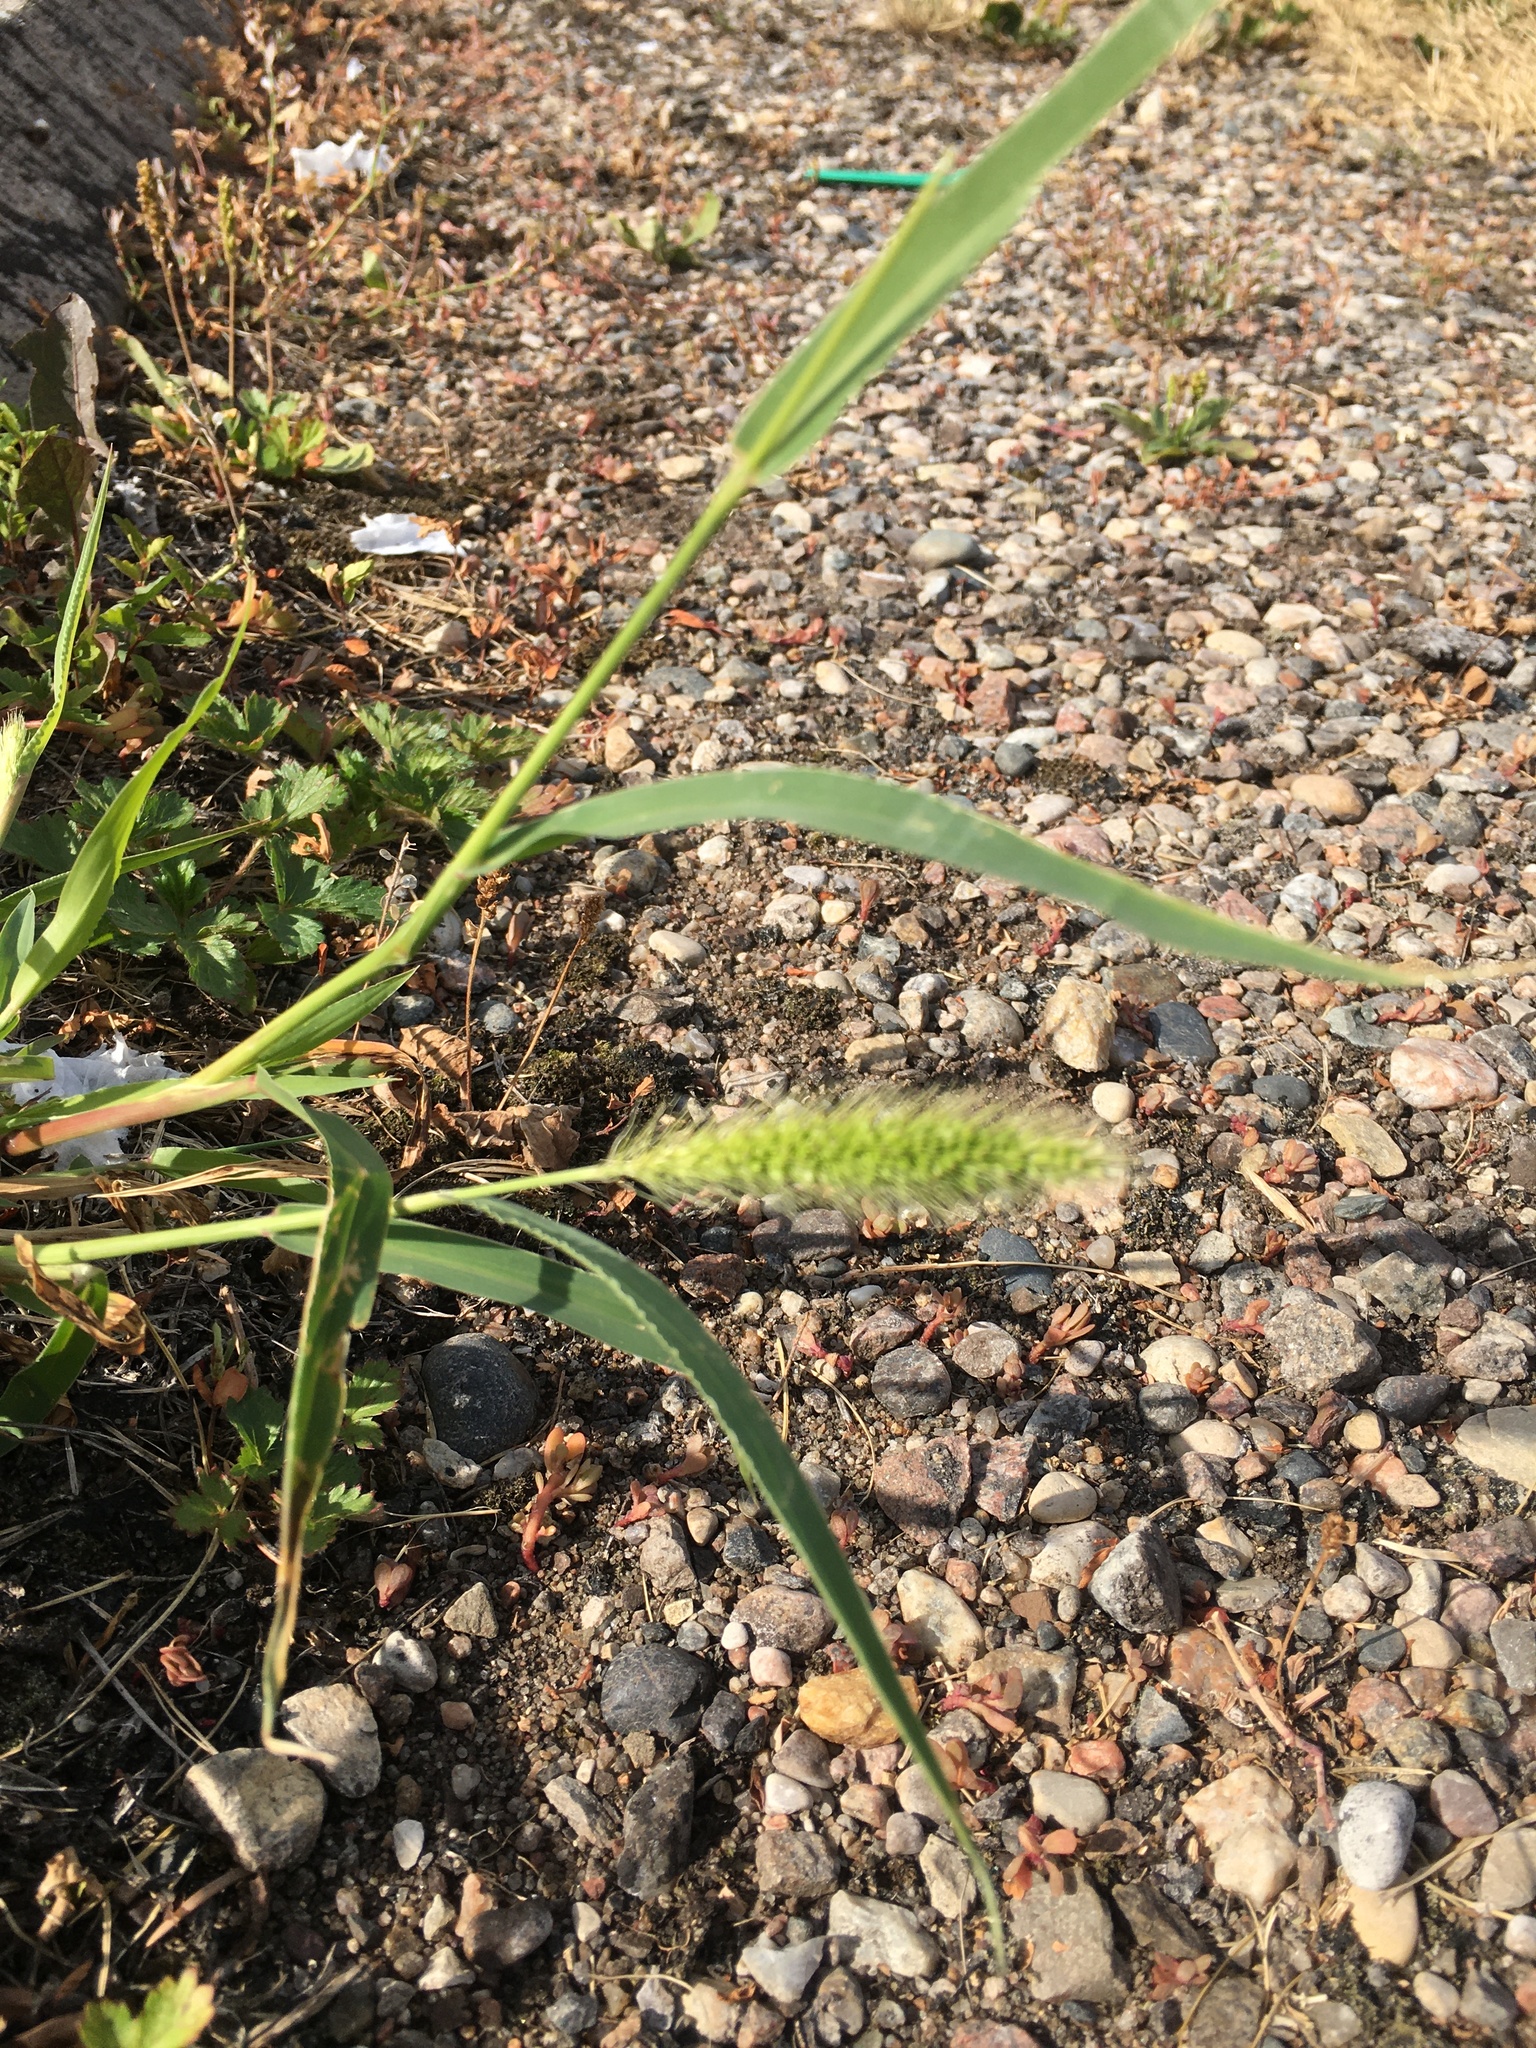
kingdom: Plantae
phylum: Tracheophyta
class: Liliopsida
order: Poales
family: Poaceae
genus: Setaria
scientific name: Setaria viridis
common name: Green bristlegrass
